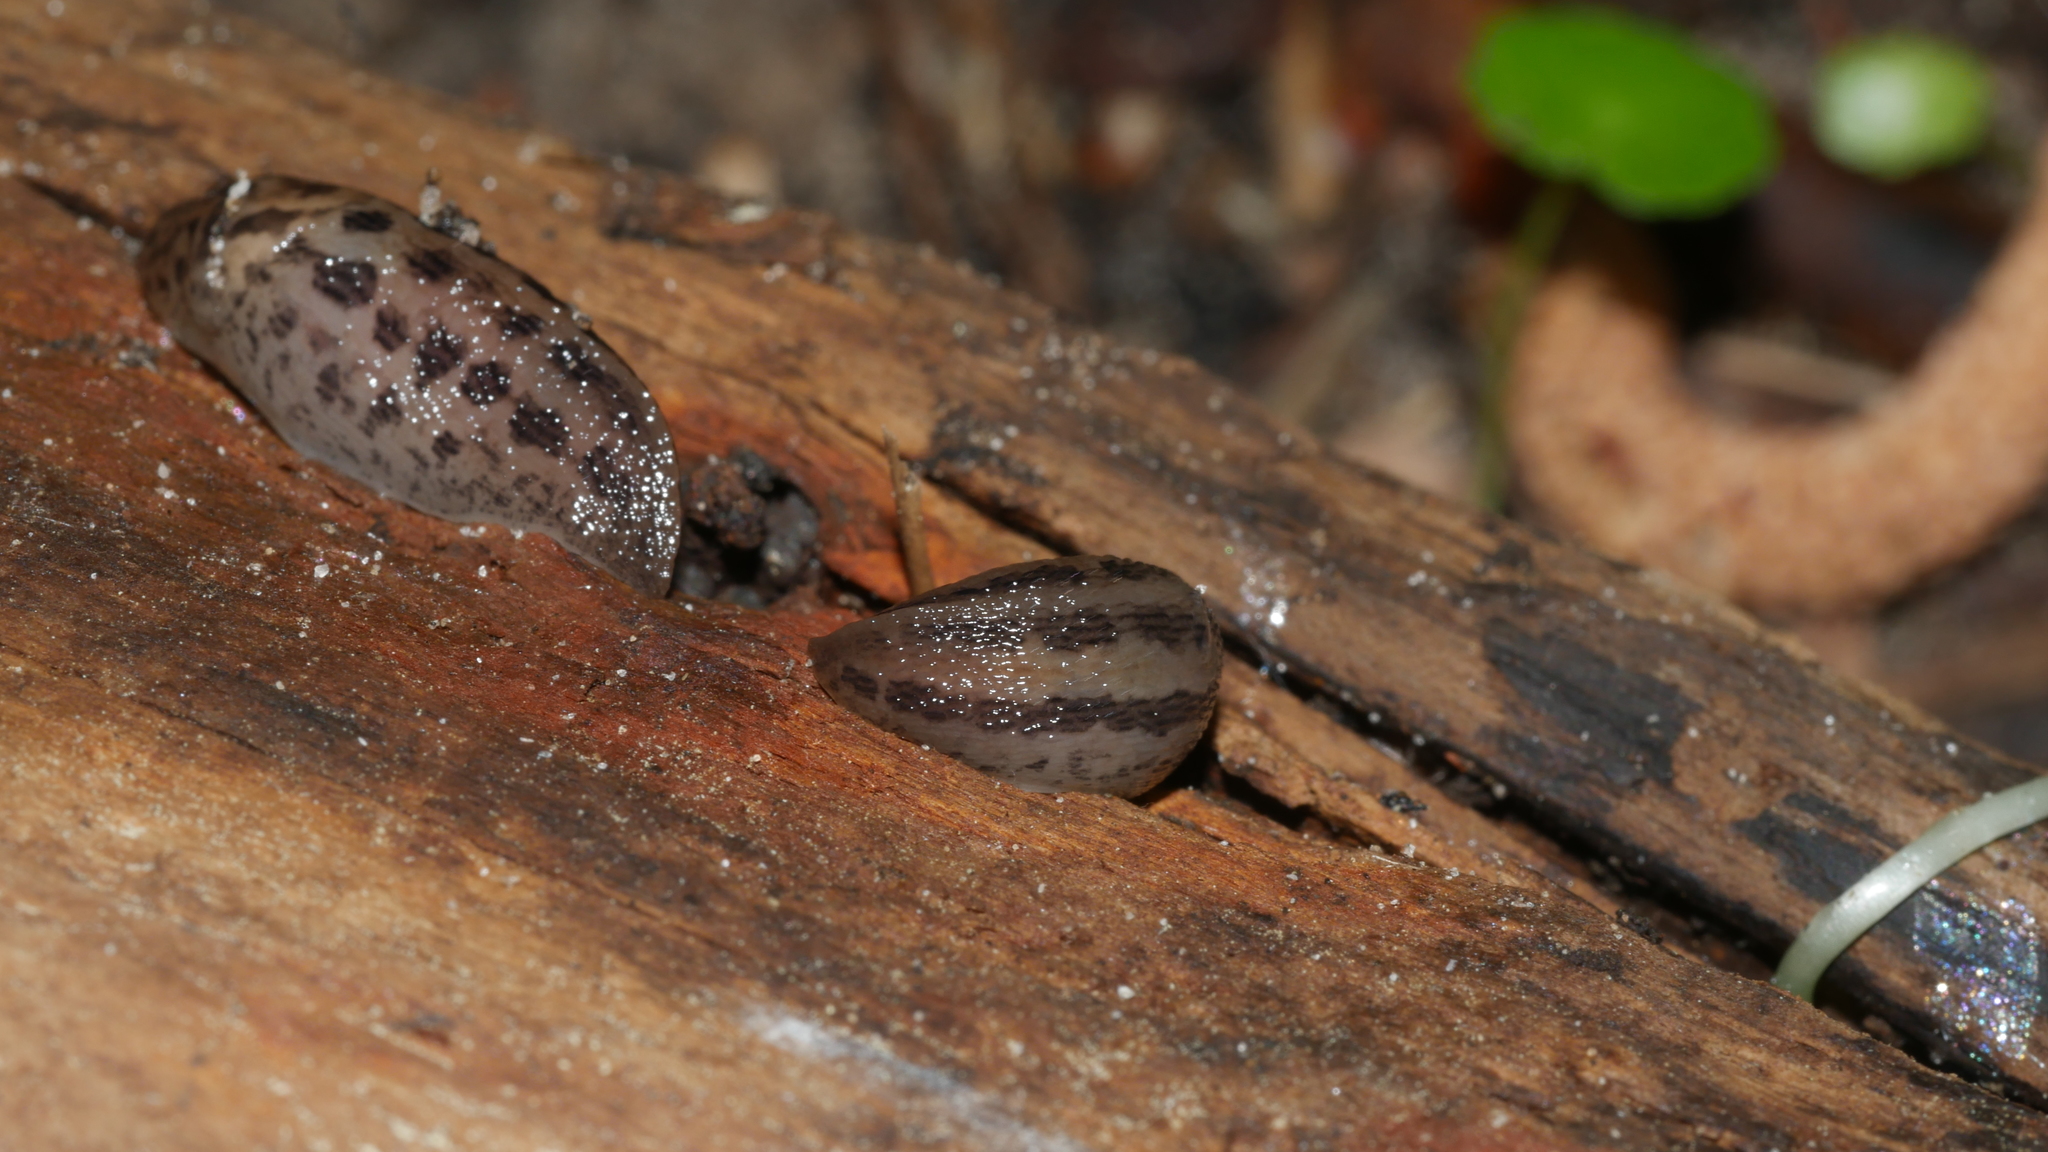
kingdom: Animalia
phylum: Mollusca
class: Gastropoda
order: Stylommatophora
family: Limacidae
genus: Limax
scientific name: Limax maximus
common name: Great grey slug
